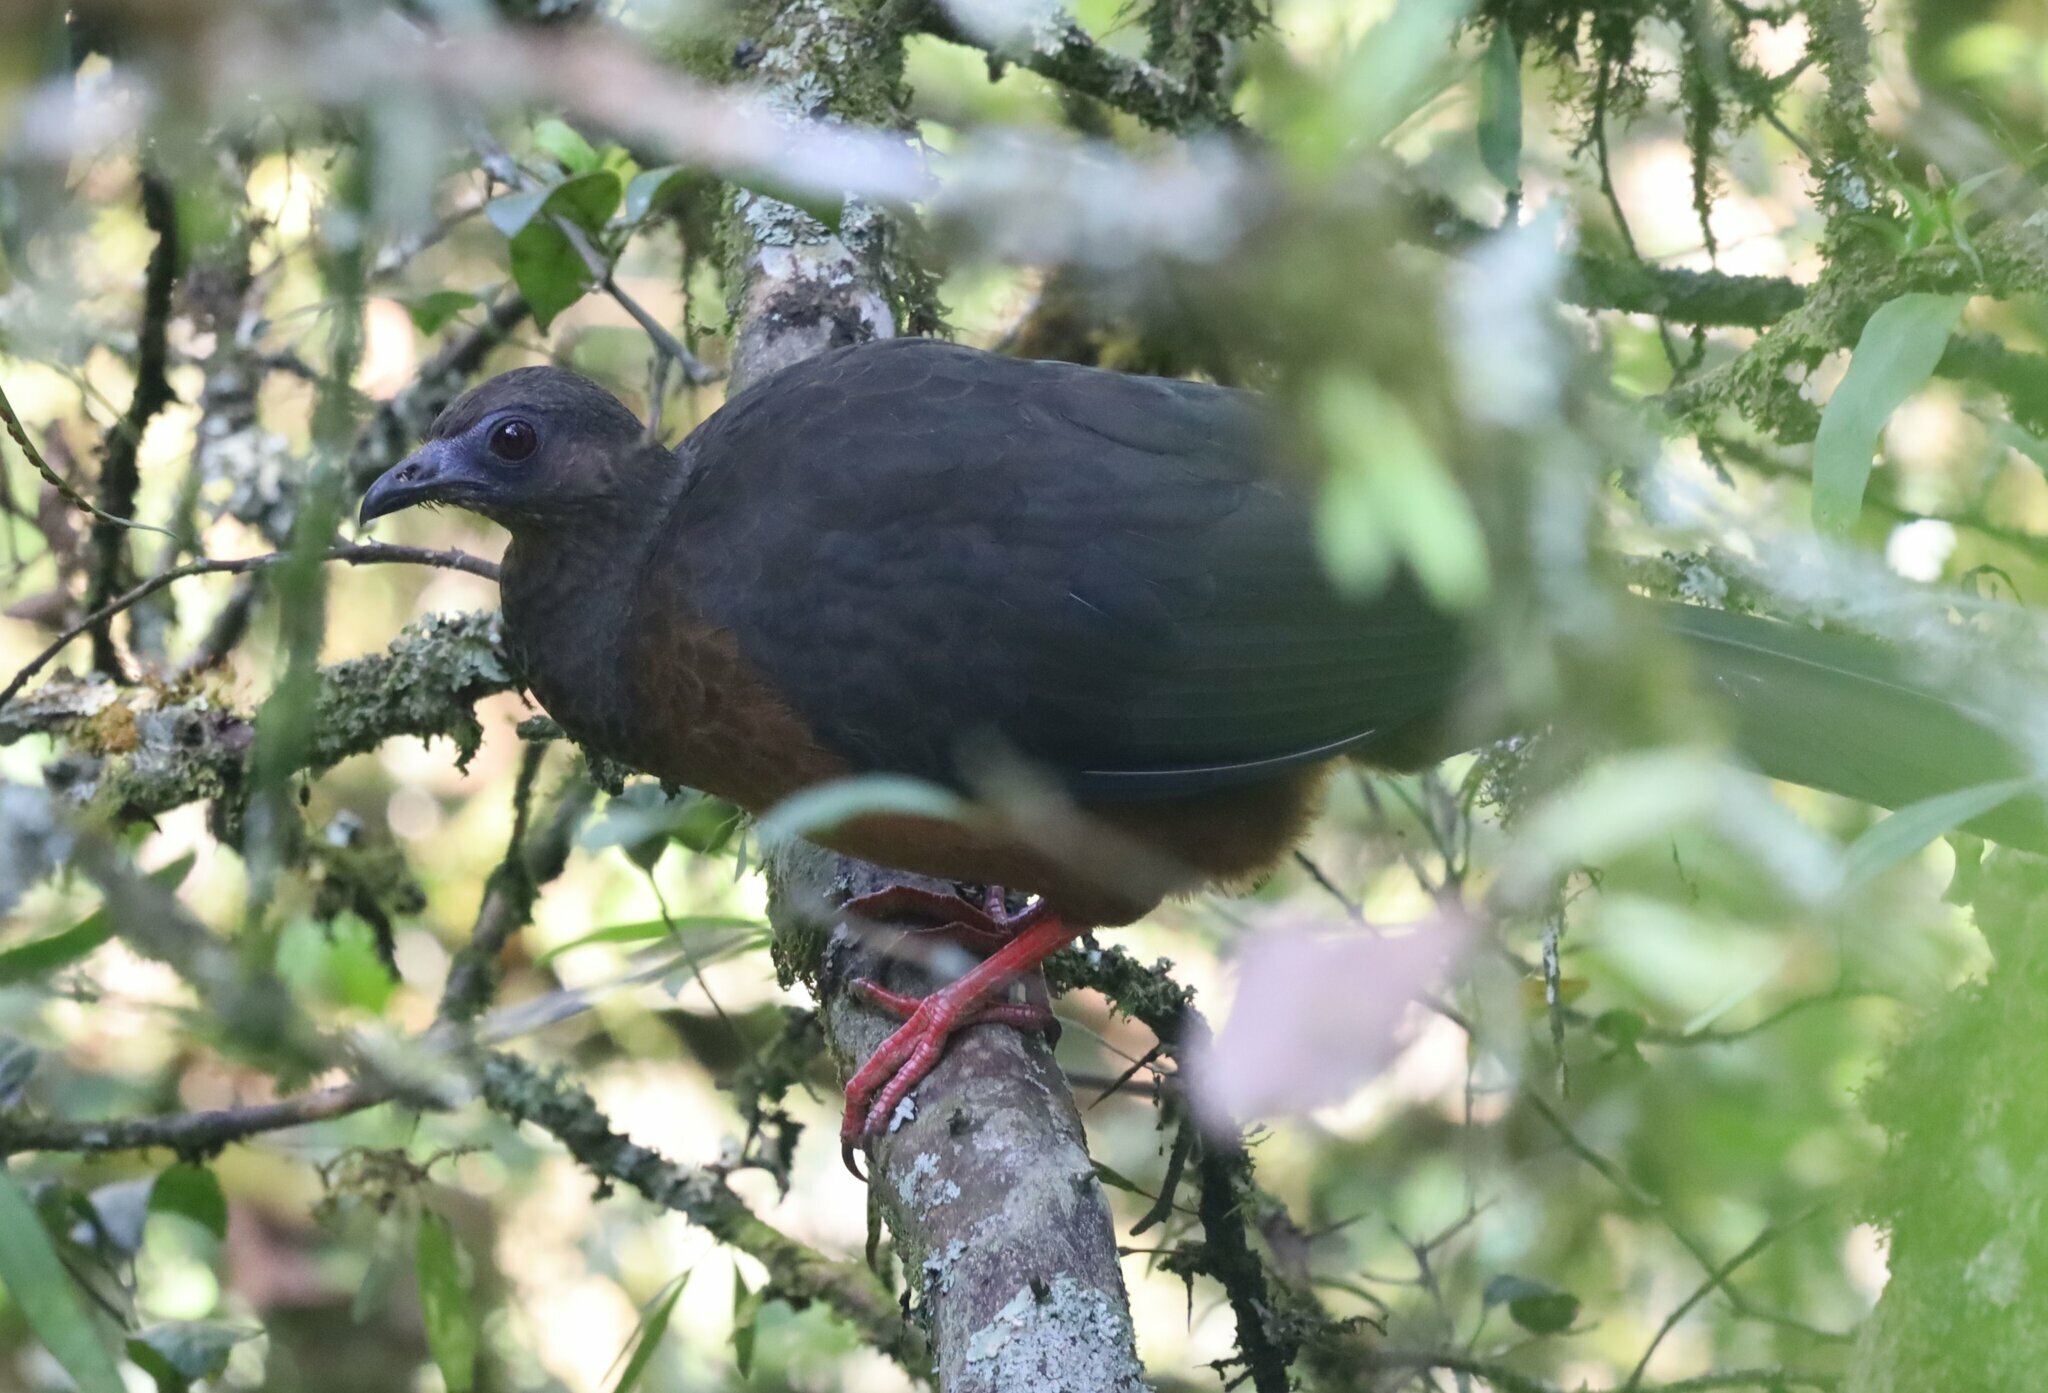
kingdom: Animalia
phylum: Chordata
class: Aves
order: Galliformes
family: Cracidae
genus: Chamaepetes
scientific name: Chamaepetes goudotii
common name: Sickle-winged guan
